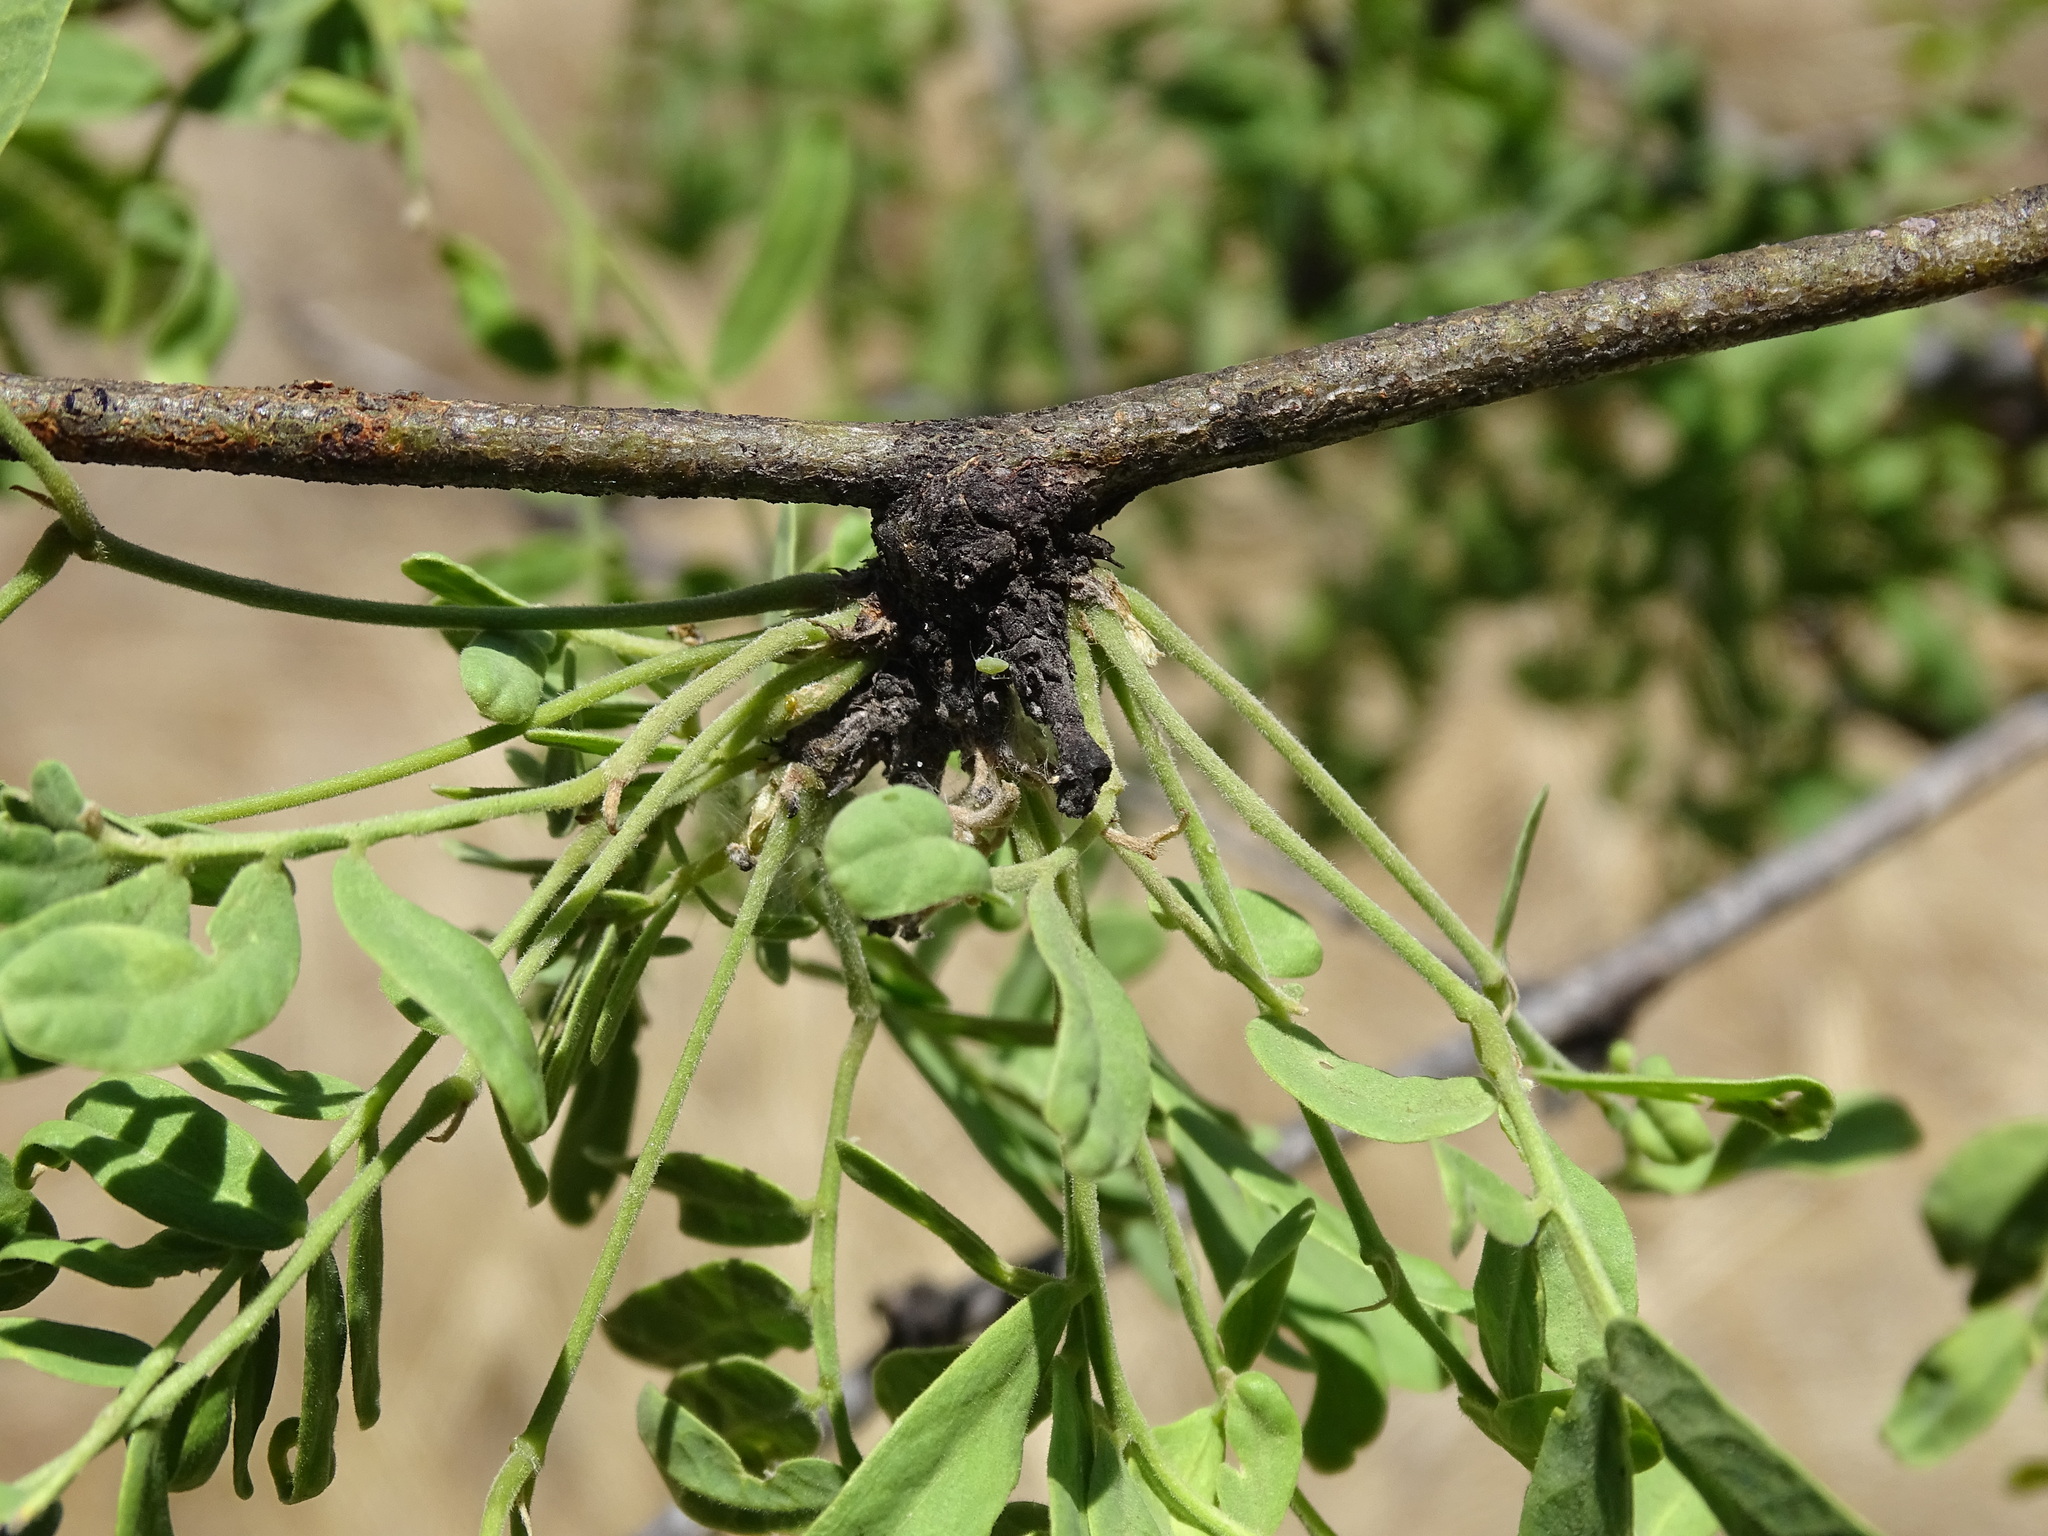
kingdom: Plantae
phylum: Tracheophyta
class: Magnoliopsida
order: Fabales
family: Fabaceae
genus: Prosopis
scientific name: Prosopis yaquiana
